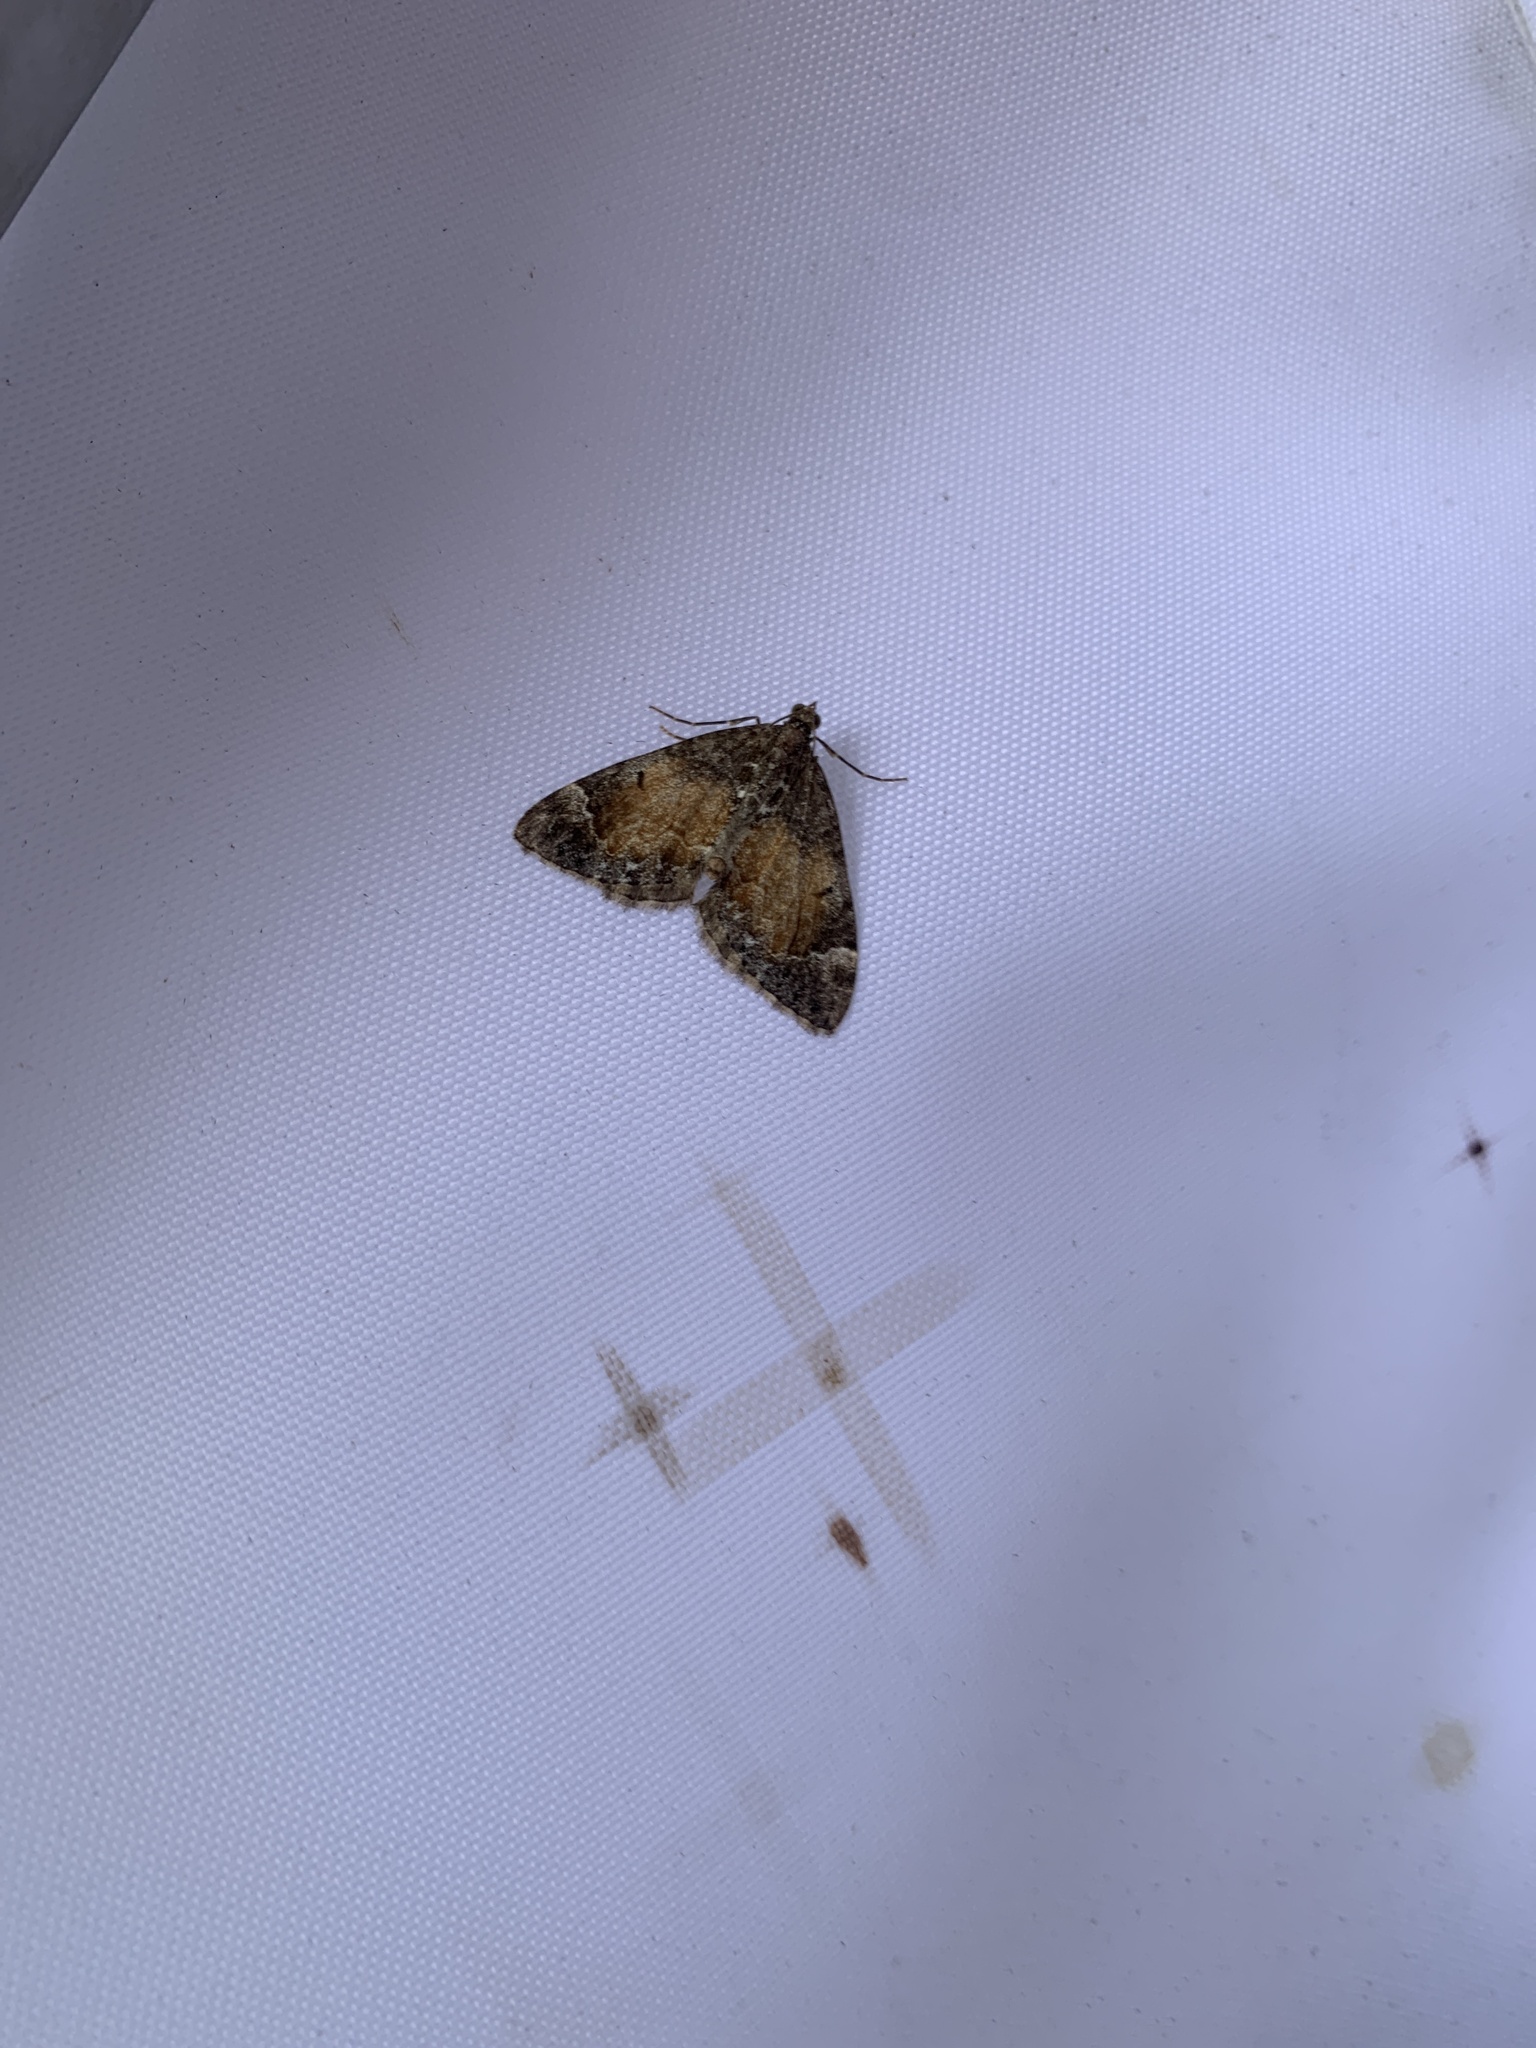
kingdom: Animalia
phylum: Arthropoda
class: Insecta
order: Lepidoptera
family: Geometridae
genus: Dysstroma
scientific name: Dysstroma truncata
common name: Common marbled carpet
